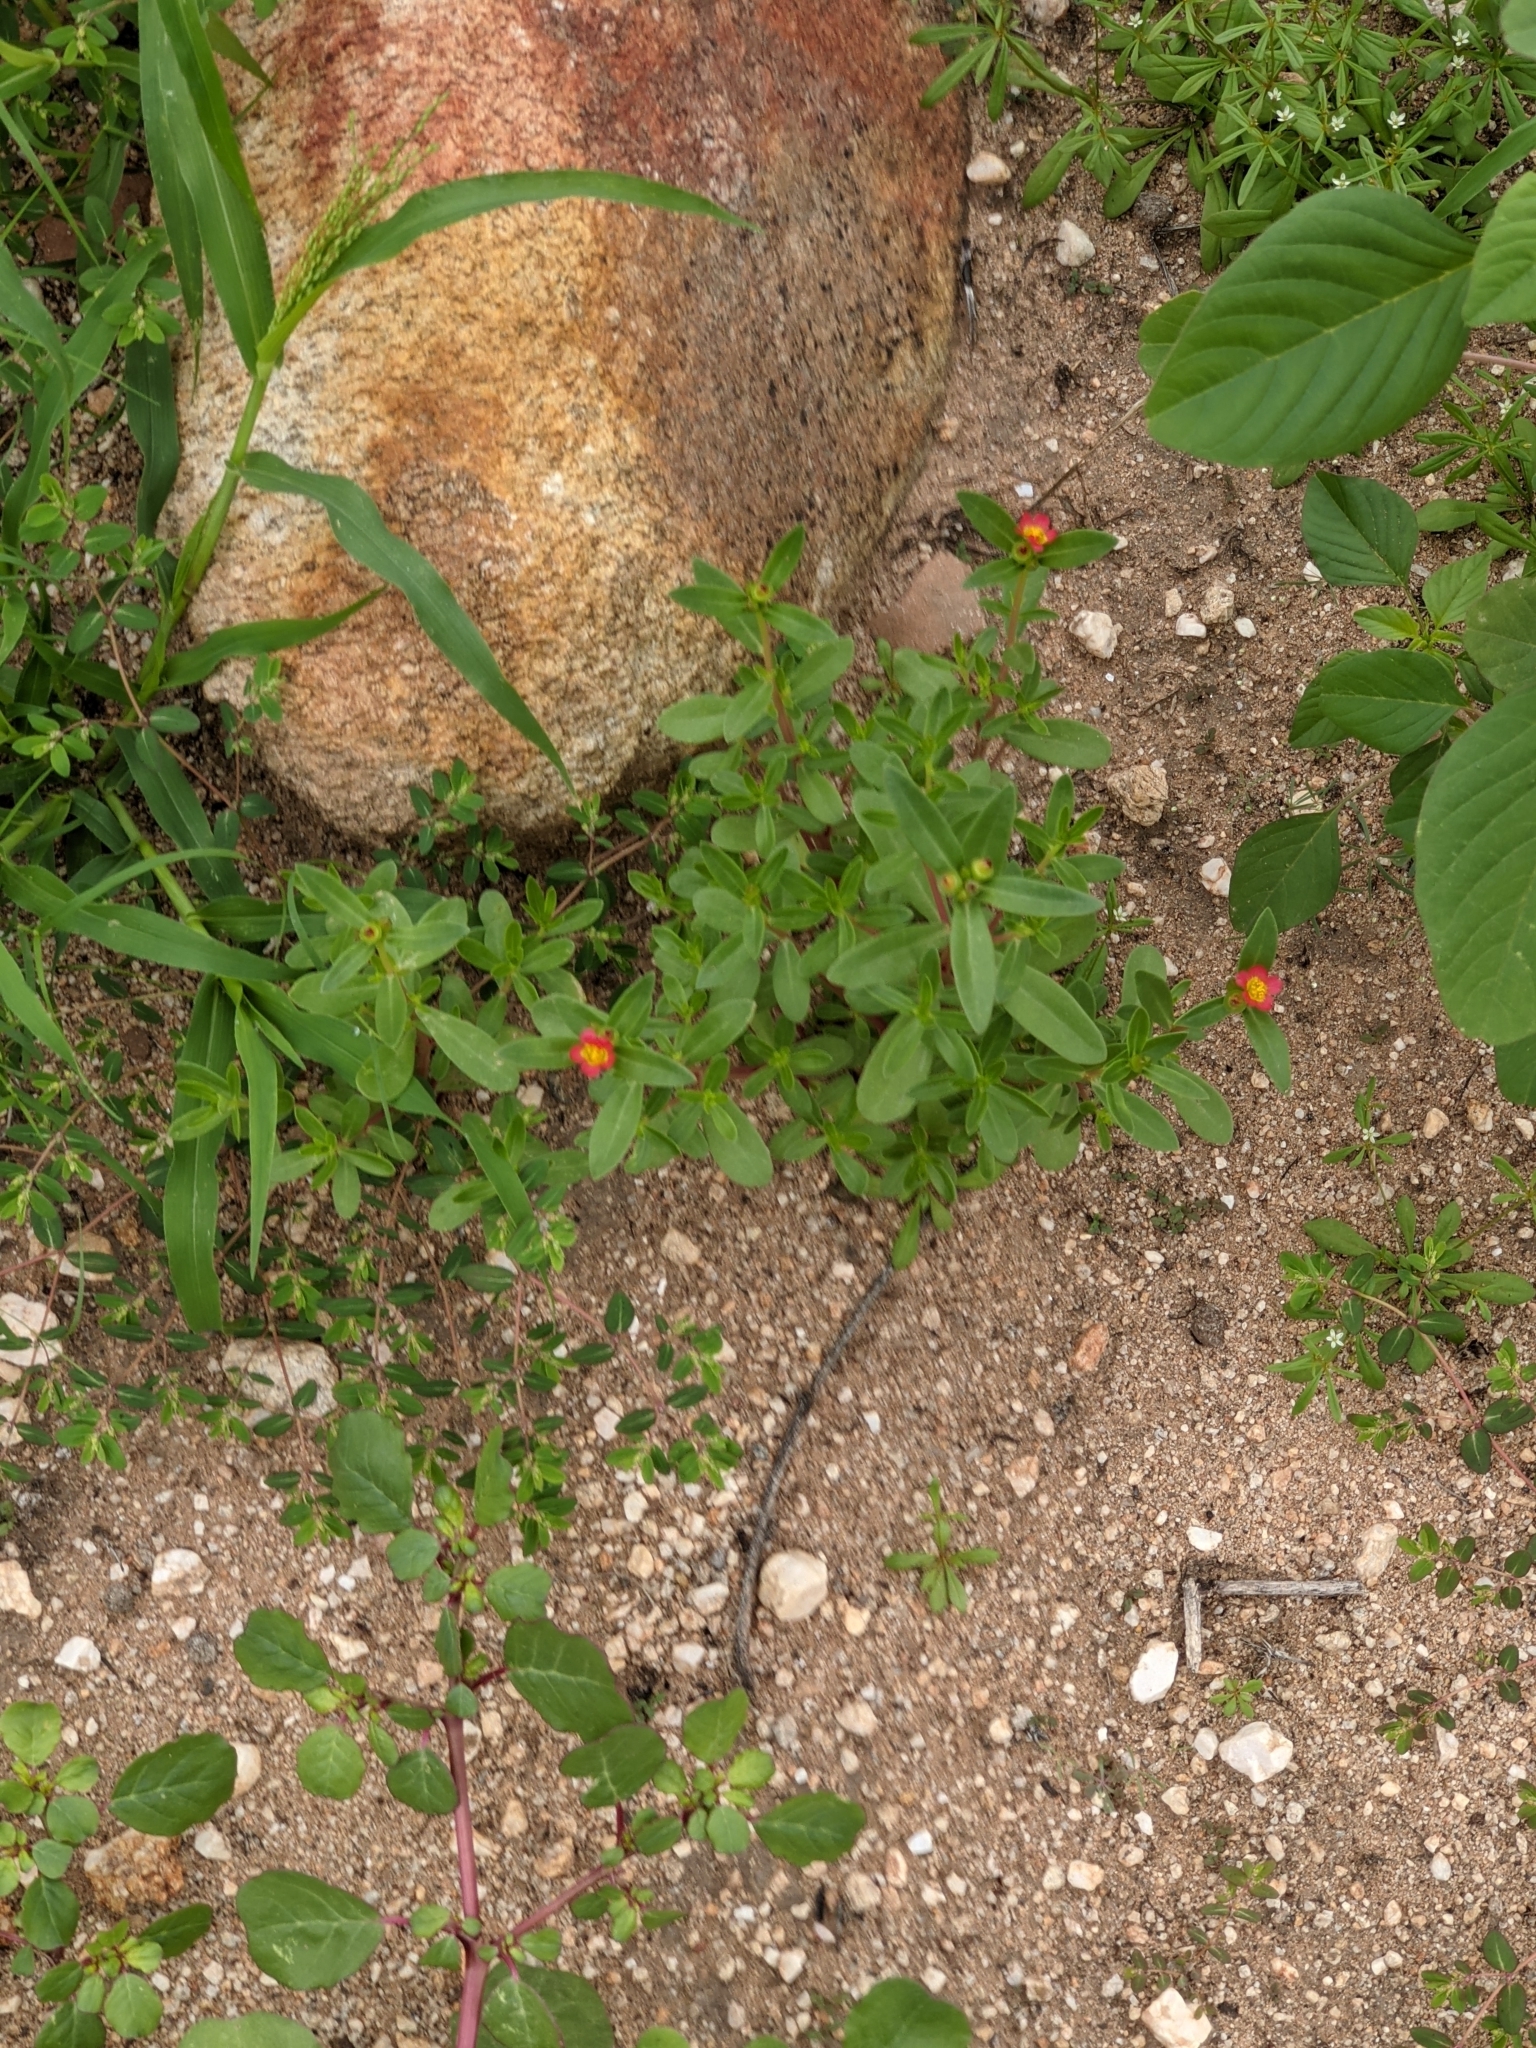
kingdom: Plantae
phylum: Tracheophyta
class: Magnoliopsida
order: Caryophyllales
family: Portulacaceae
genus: Portulaca
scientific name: Portulaca umbraticola
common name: Wingpod purslane
